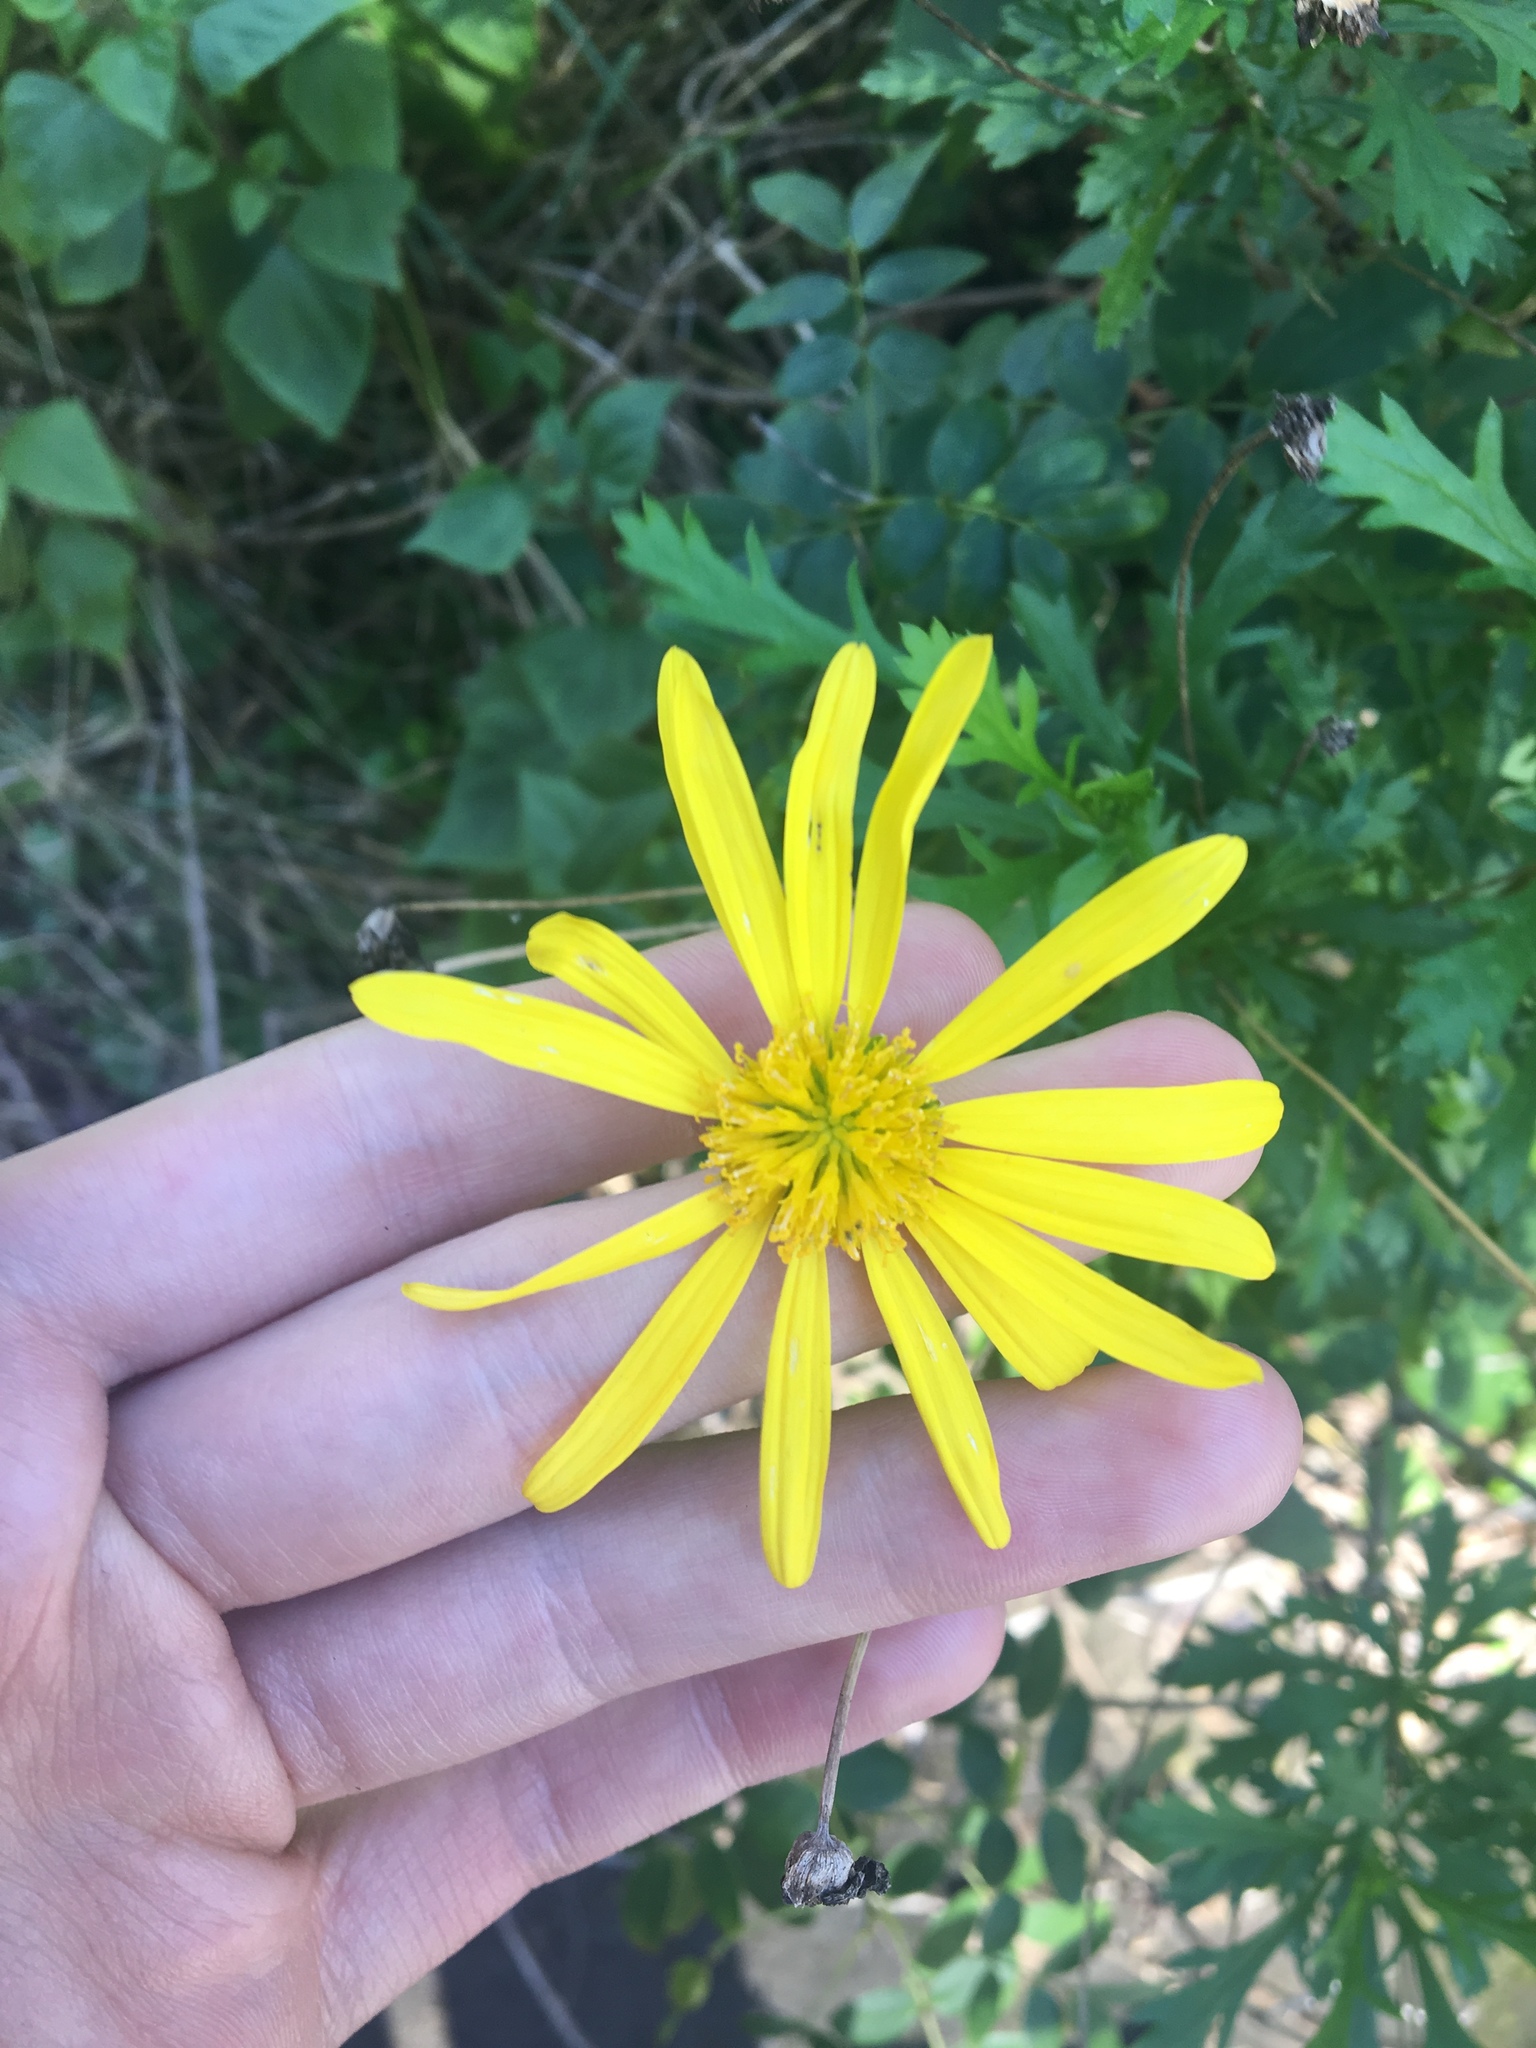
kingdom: Plantae
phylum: Tracheophyta
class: Magnoliopsida
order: Asterales
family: Asteraceae
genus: Euryops
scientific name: Euryops chrysanthemoides
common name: Bull's eye
